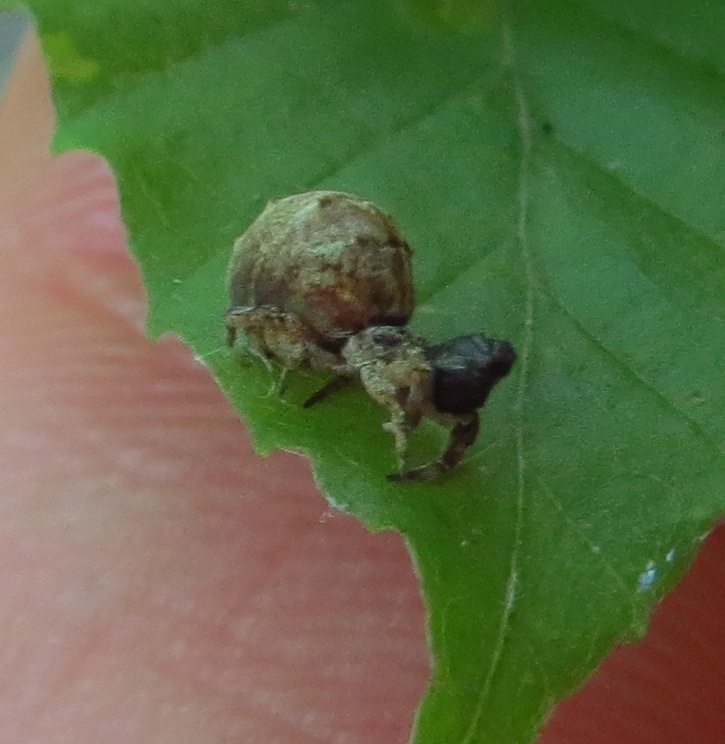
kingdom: Animalia
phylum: Arthropoda
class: Arachnida
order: Araneae
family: Uloboridae
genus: Hyptiotes
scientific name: Hyptiotes cavatus
